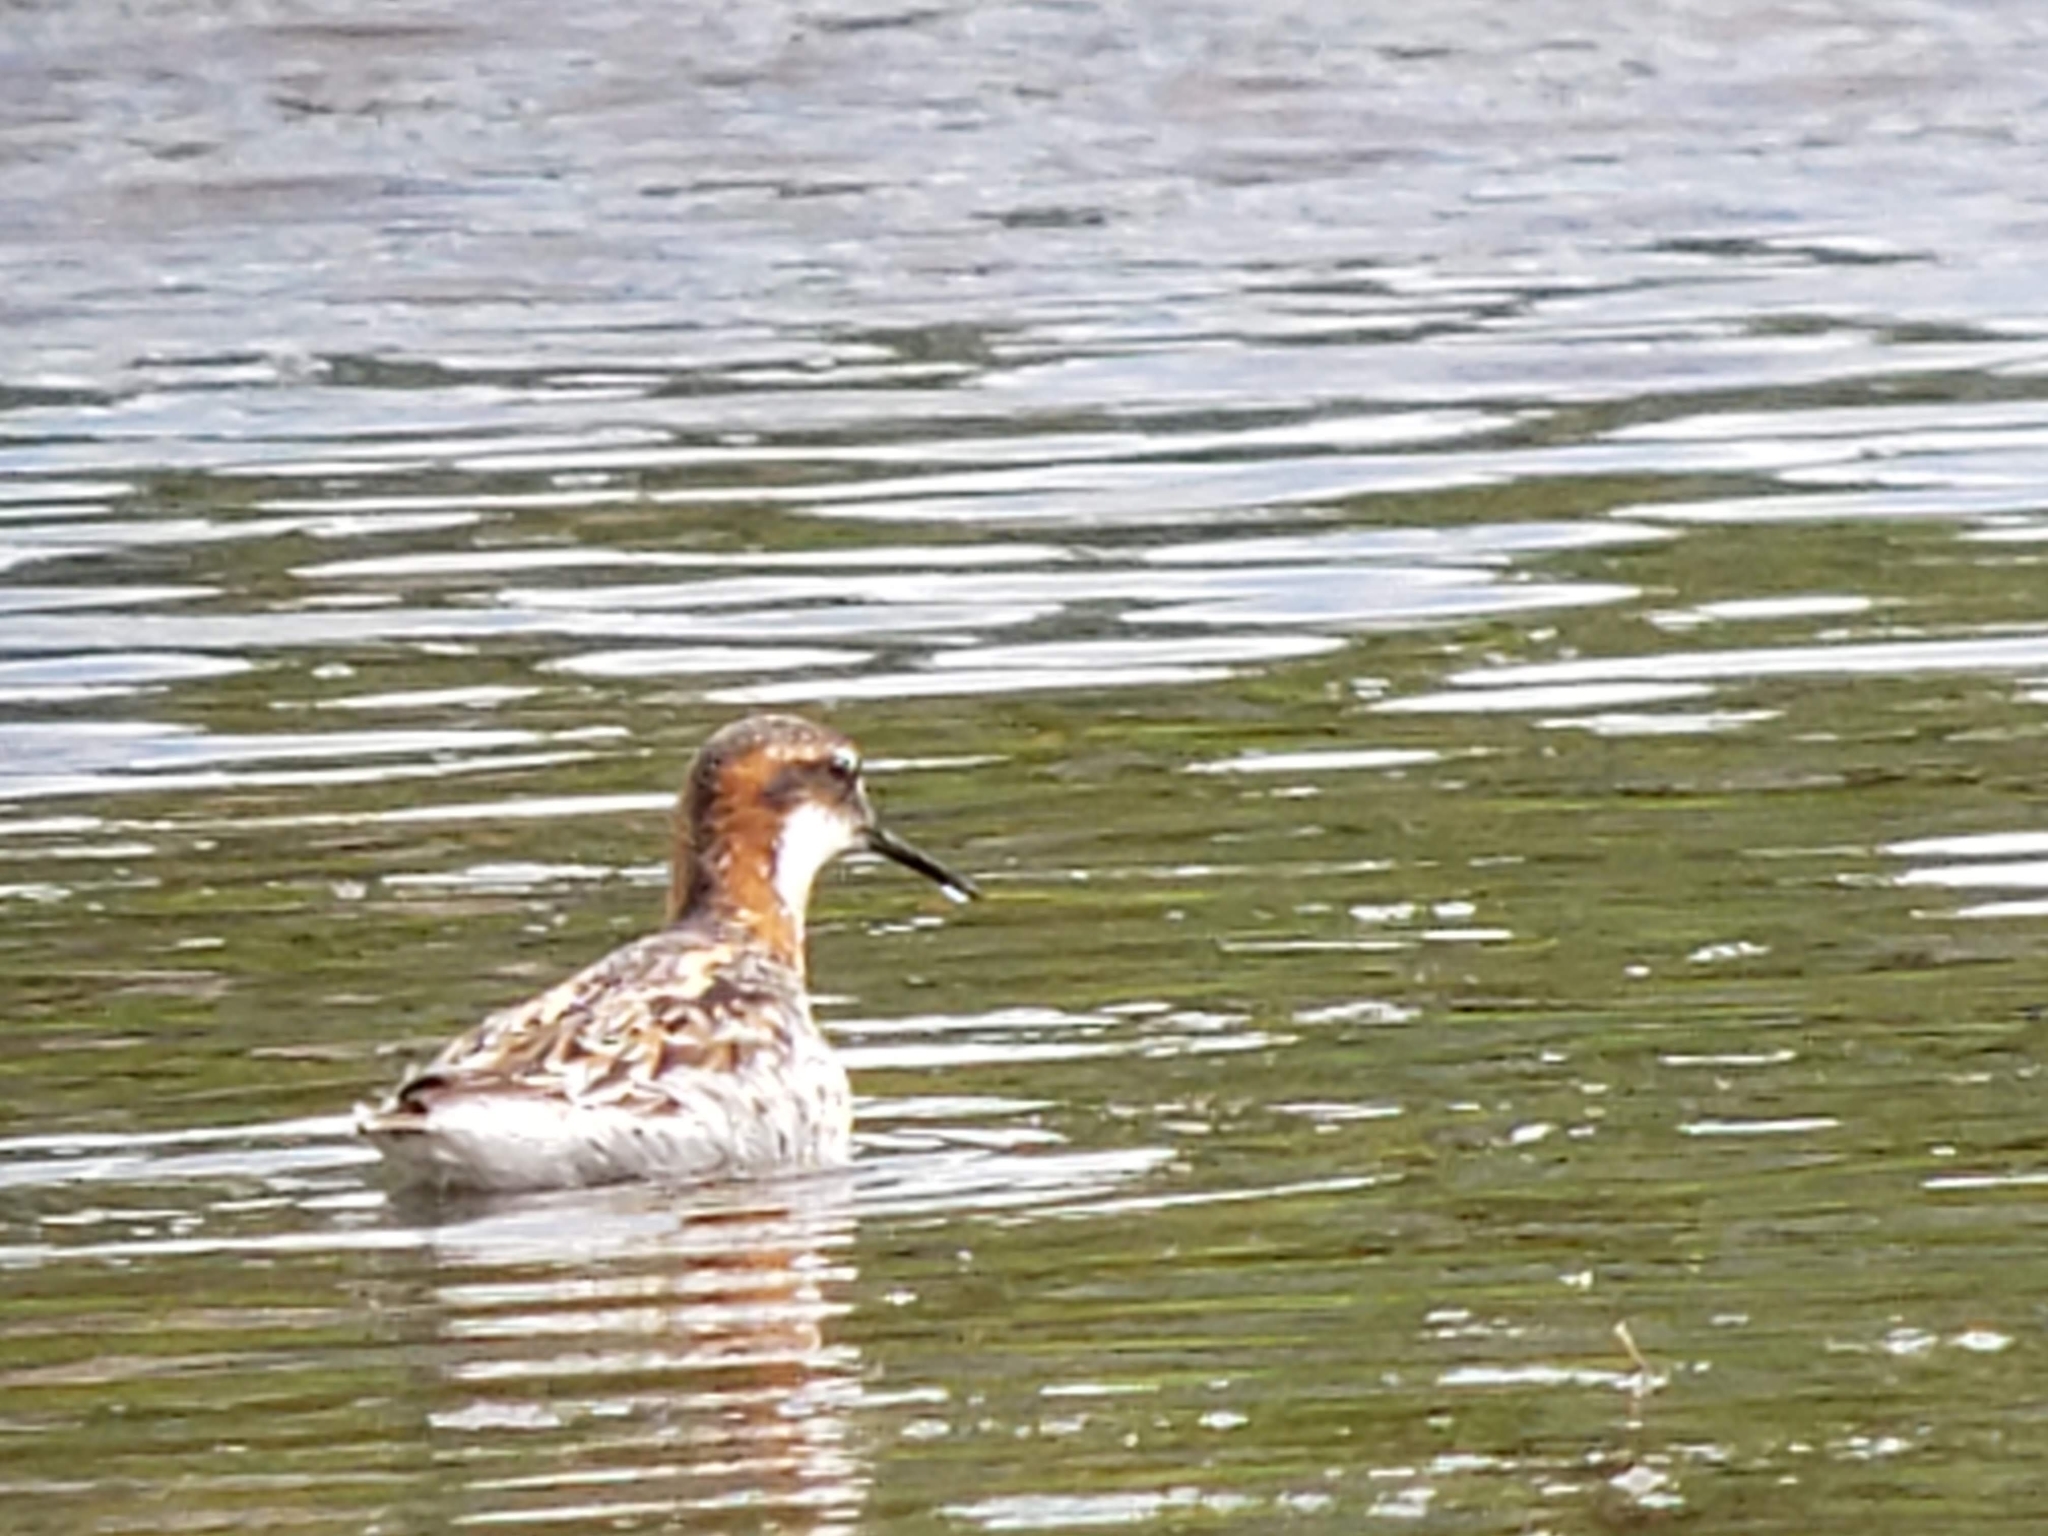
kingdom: Animalia
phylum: Chordata
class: Aves
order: Charadriiformes
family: Scolopacidae
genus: Phalaropus
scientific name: Phalaropus lobatus
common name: Red-necked phalarope
